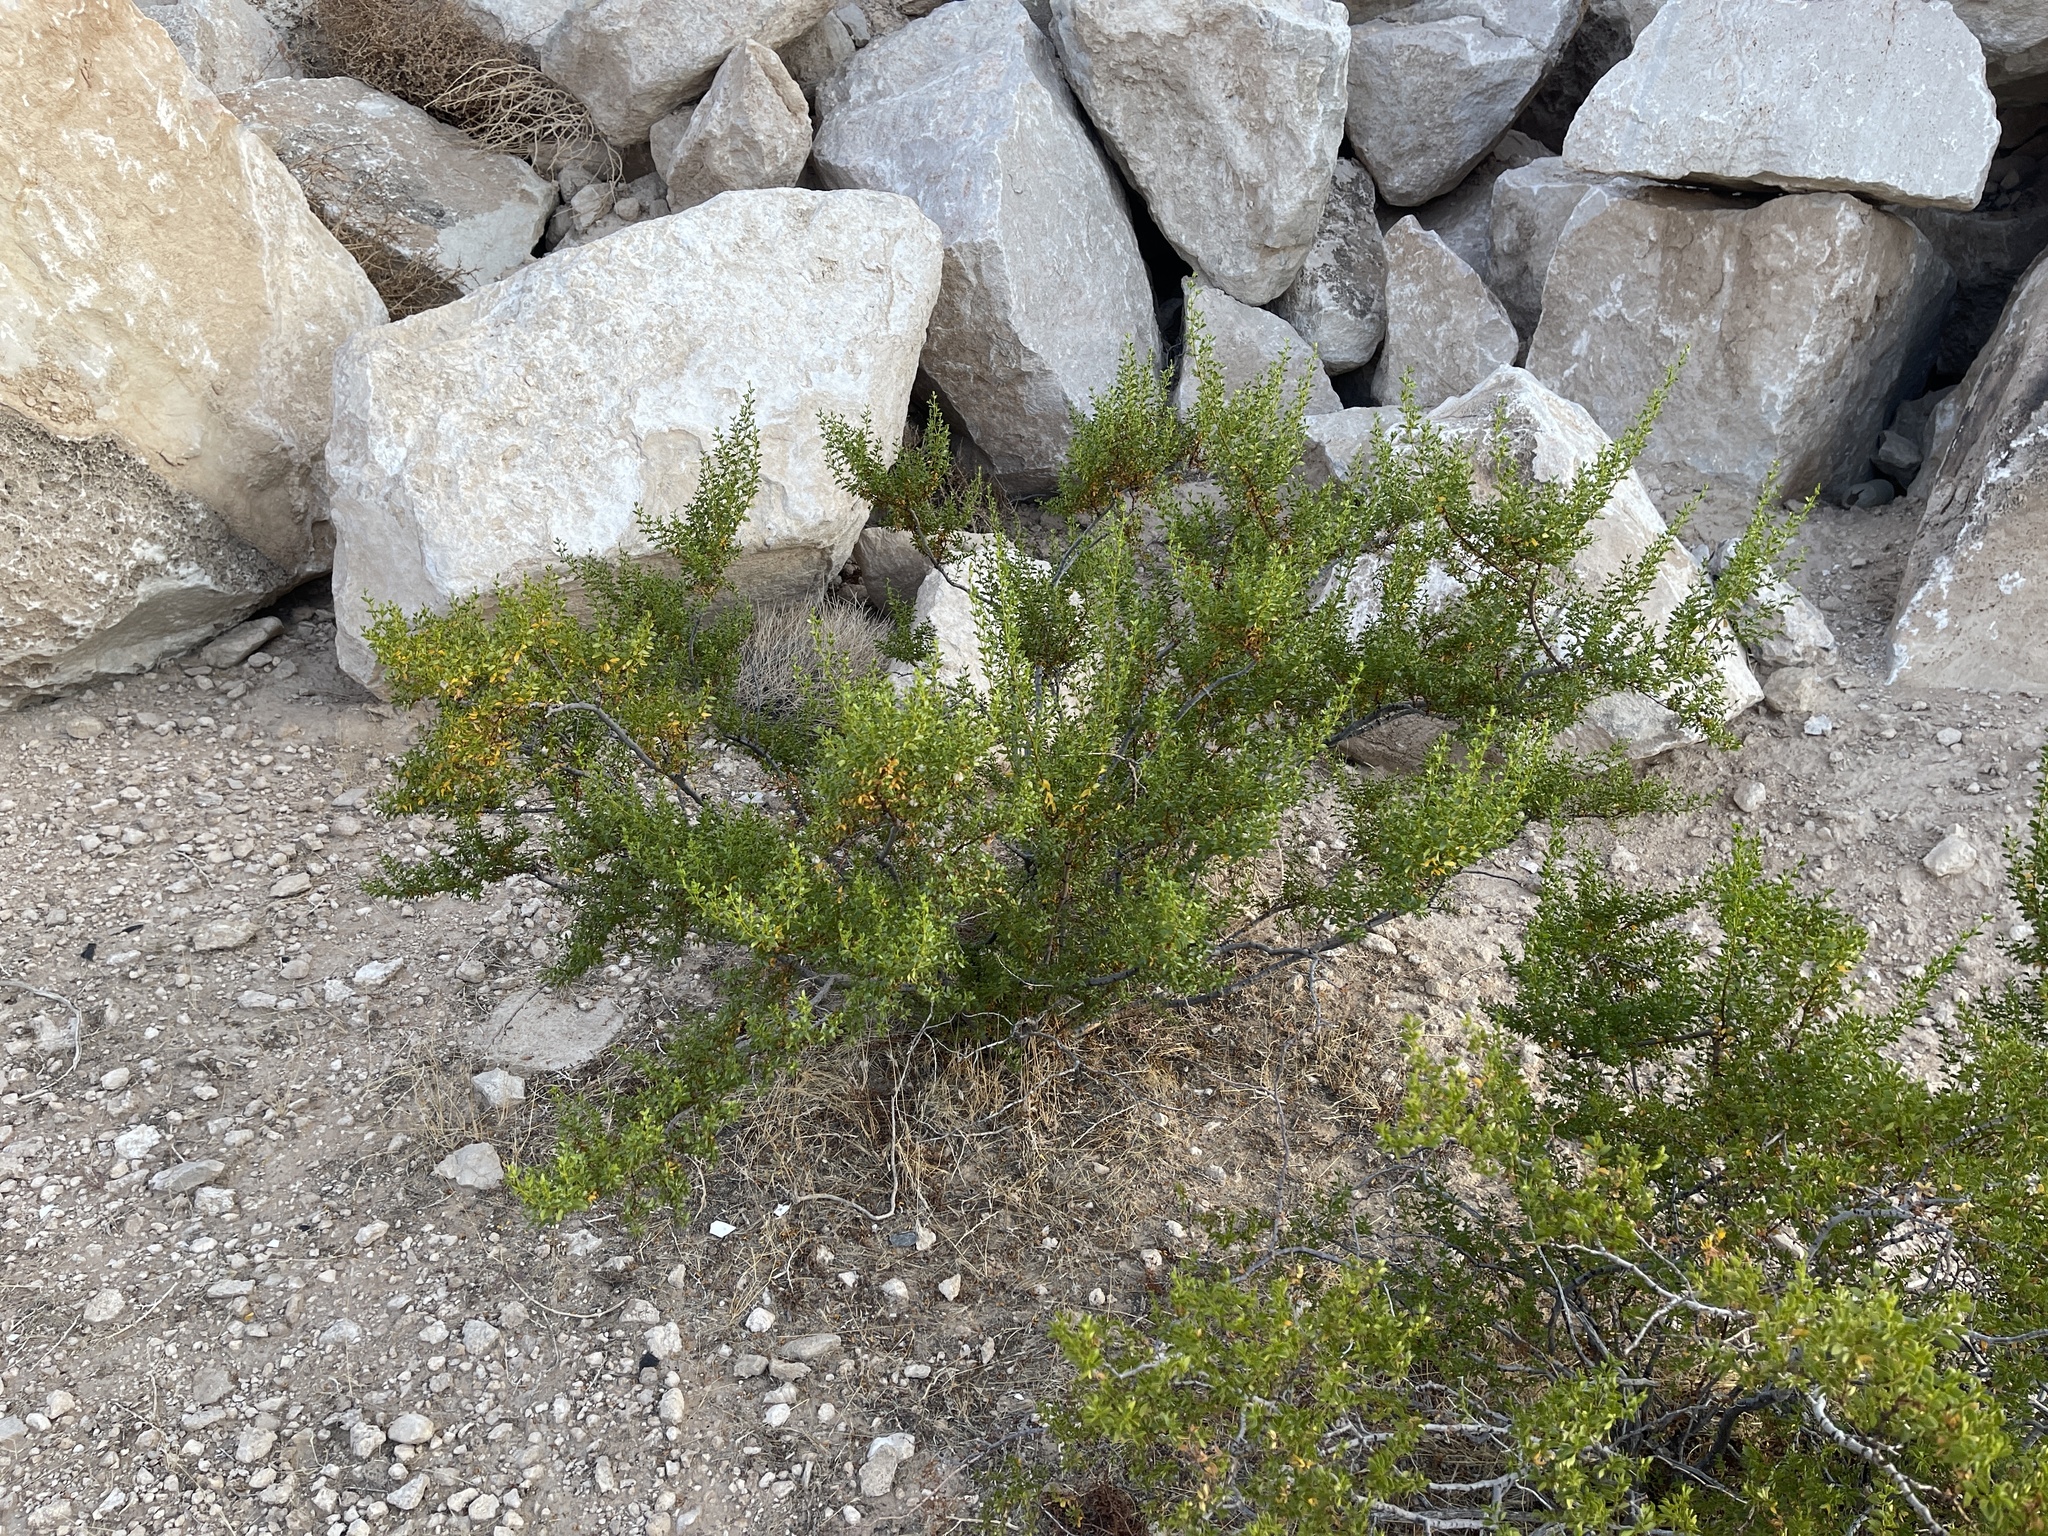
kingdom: Plantae
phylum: Tracheophyta
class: Magnoliopsida
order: Zygophyllales
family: Zygophyllaceae
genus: Larrea
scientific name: Larrea tridentata
